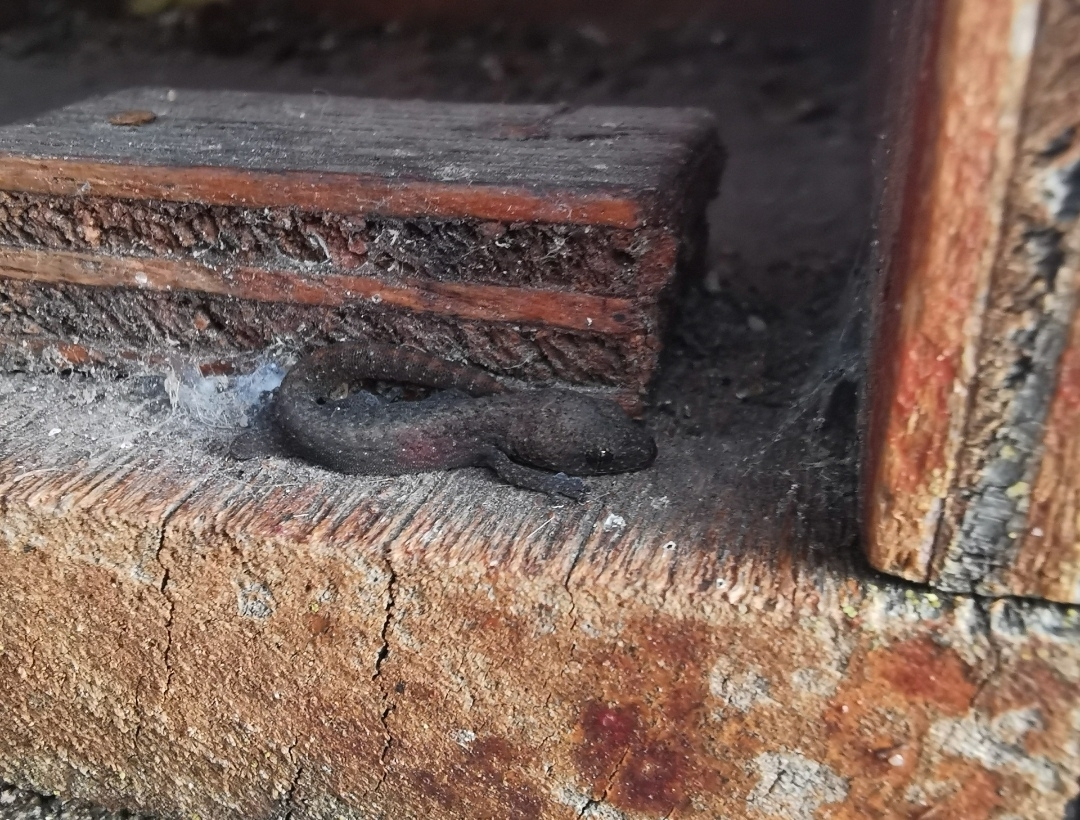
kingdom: Animalia
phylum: Chordata
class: Squamata
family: Gekkonidae
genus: Afrogecko
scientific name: Afrogecko porphyreus
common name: Marbled leaf-toed gecko
